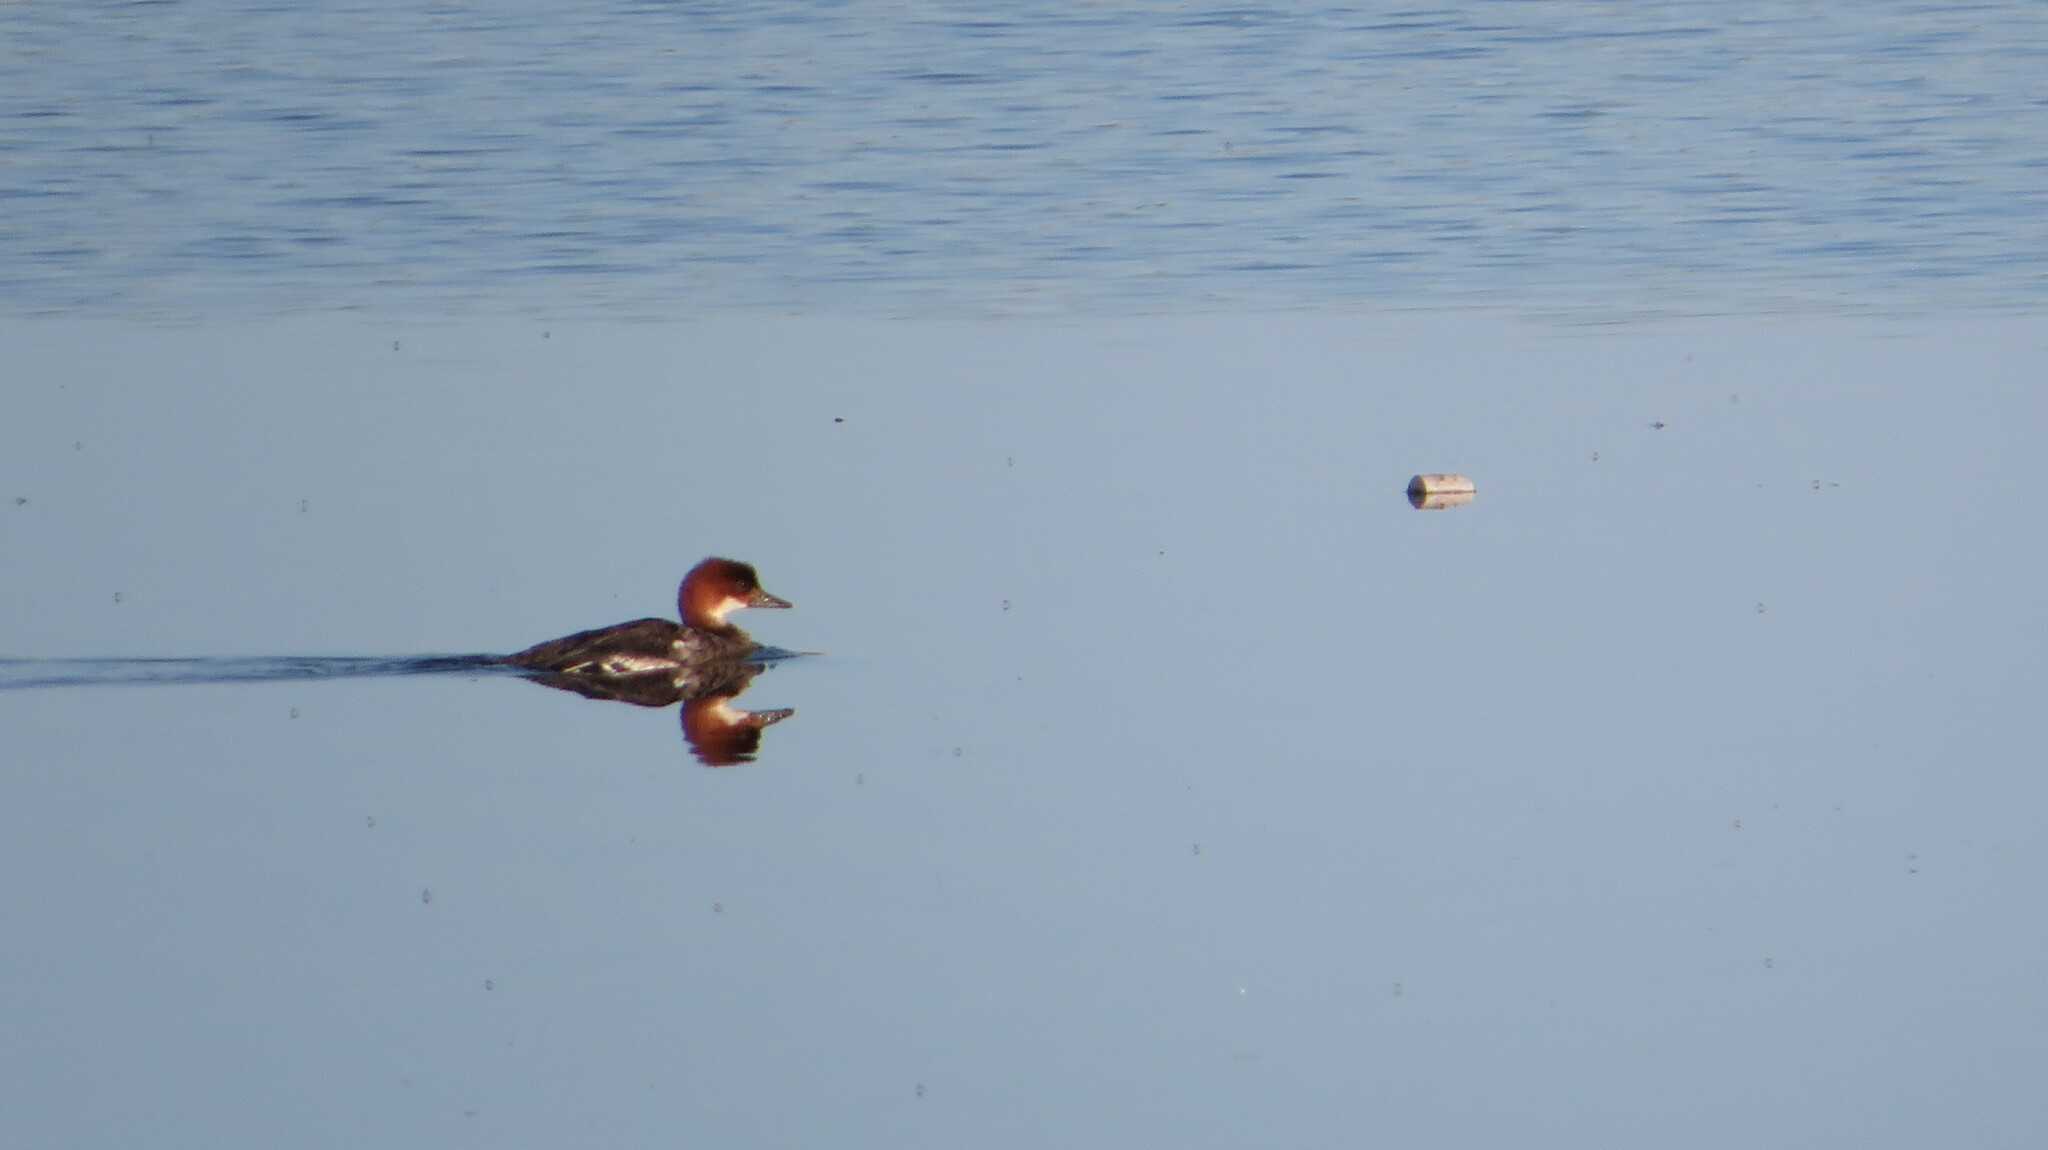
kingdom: Animalia
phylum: Chordata
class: Aves
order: Anseriformes
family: Anatidae
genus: Mergellus
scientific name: Mergellus albellus
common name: Smew
